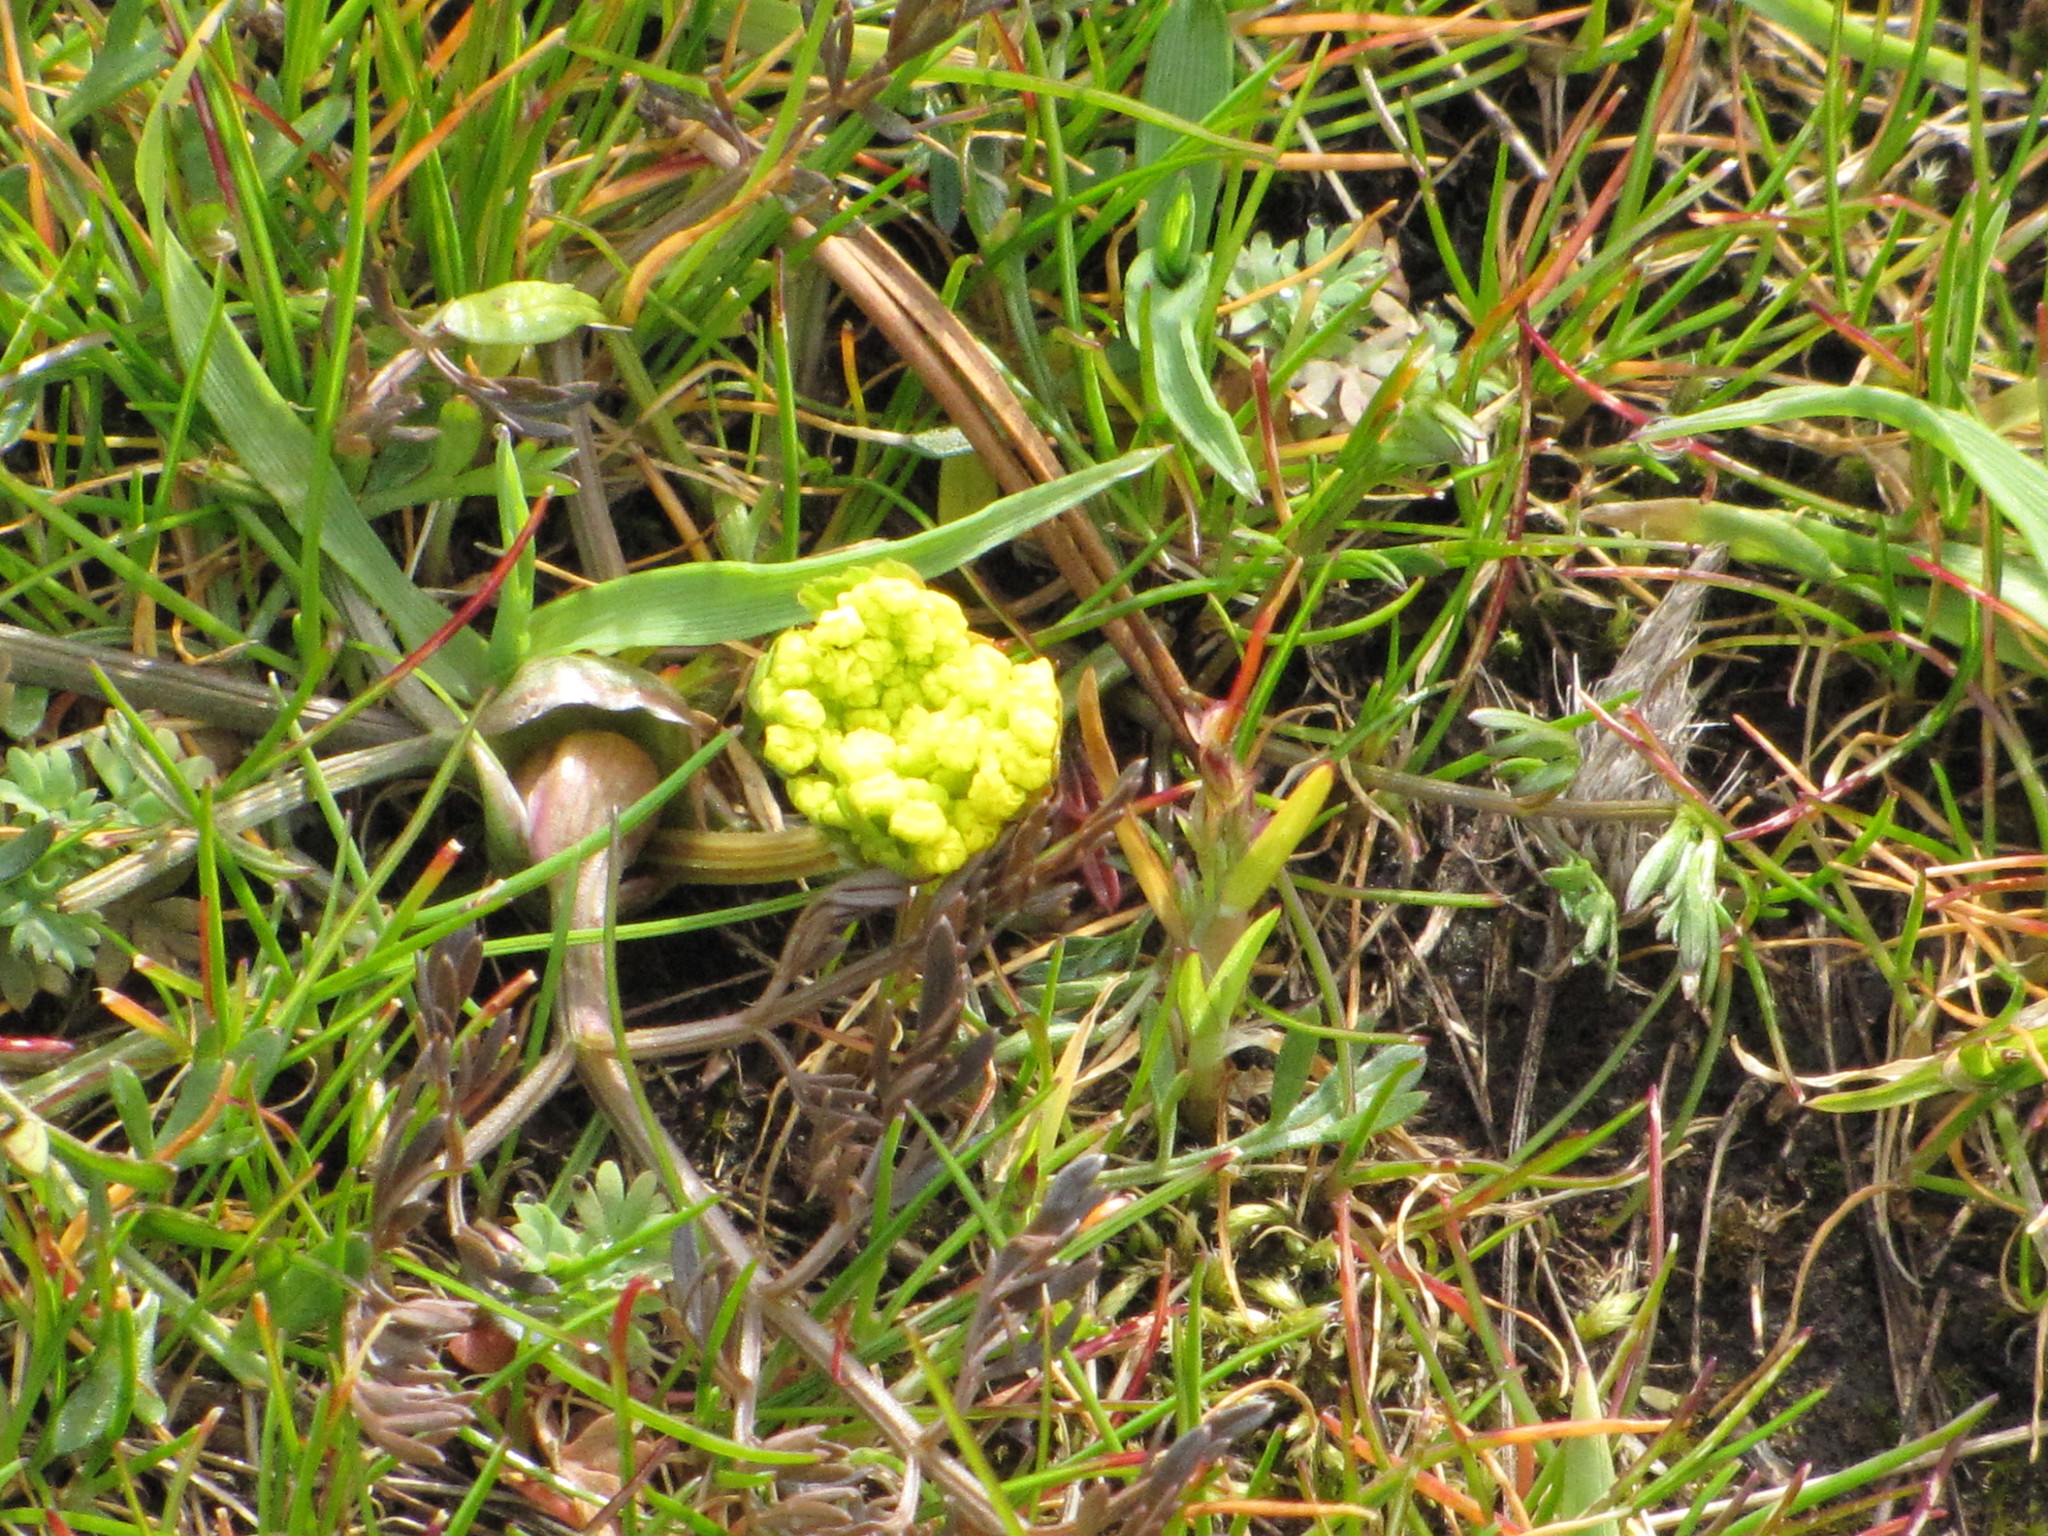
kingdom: Plantae
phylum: Tracheophyta
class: Magnoliopsida
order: Apiales
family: Apiaceae
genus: Lomatium
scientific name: Lomatium utriculatum
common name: Fine-leaf desert-parsley
